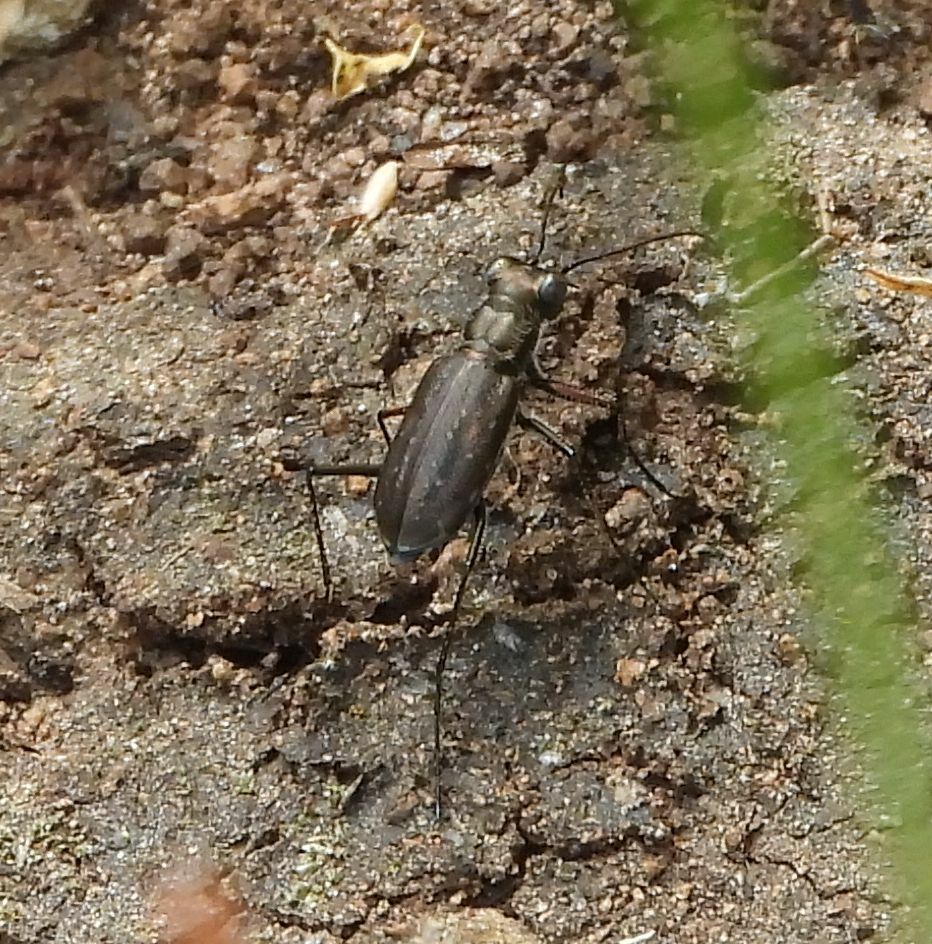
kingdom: Animalia
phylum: Arthropoda
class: Insecta
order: Coleoptera
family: Carabidae
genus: Cicindela
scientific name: Cicindela punctulata
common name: Punctured tiger beetle
